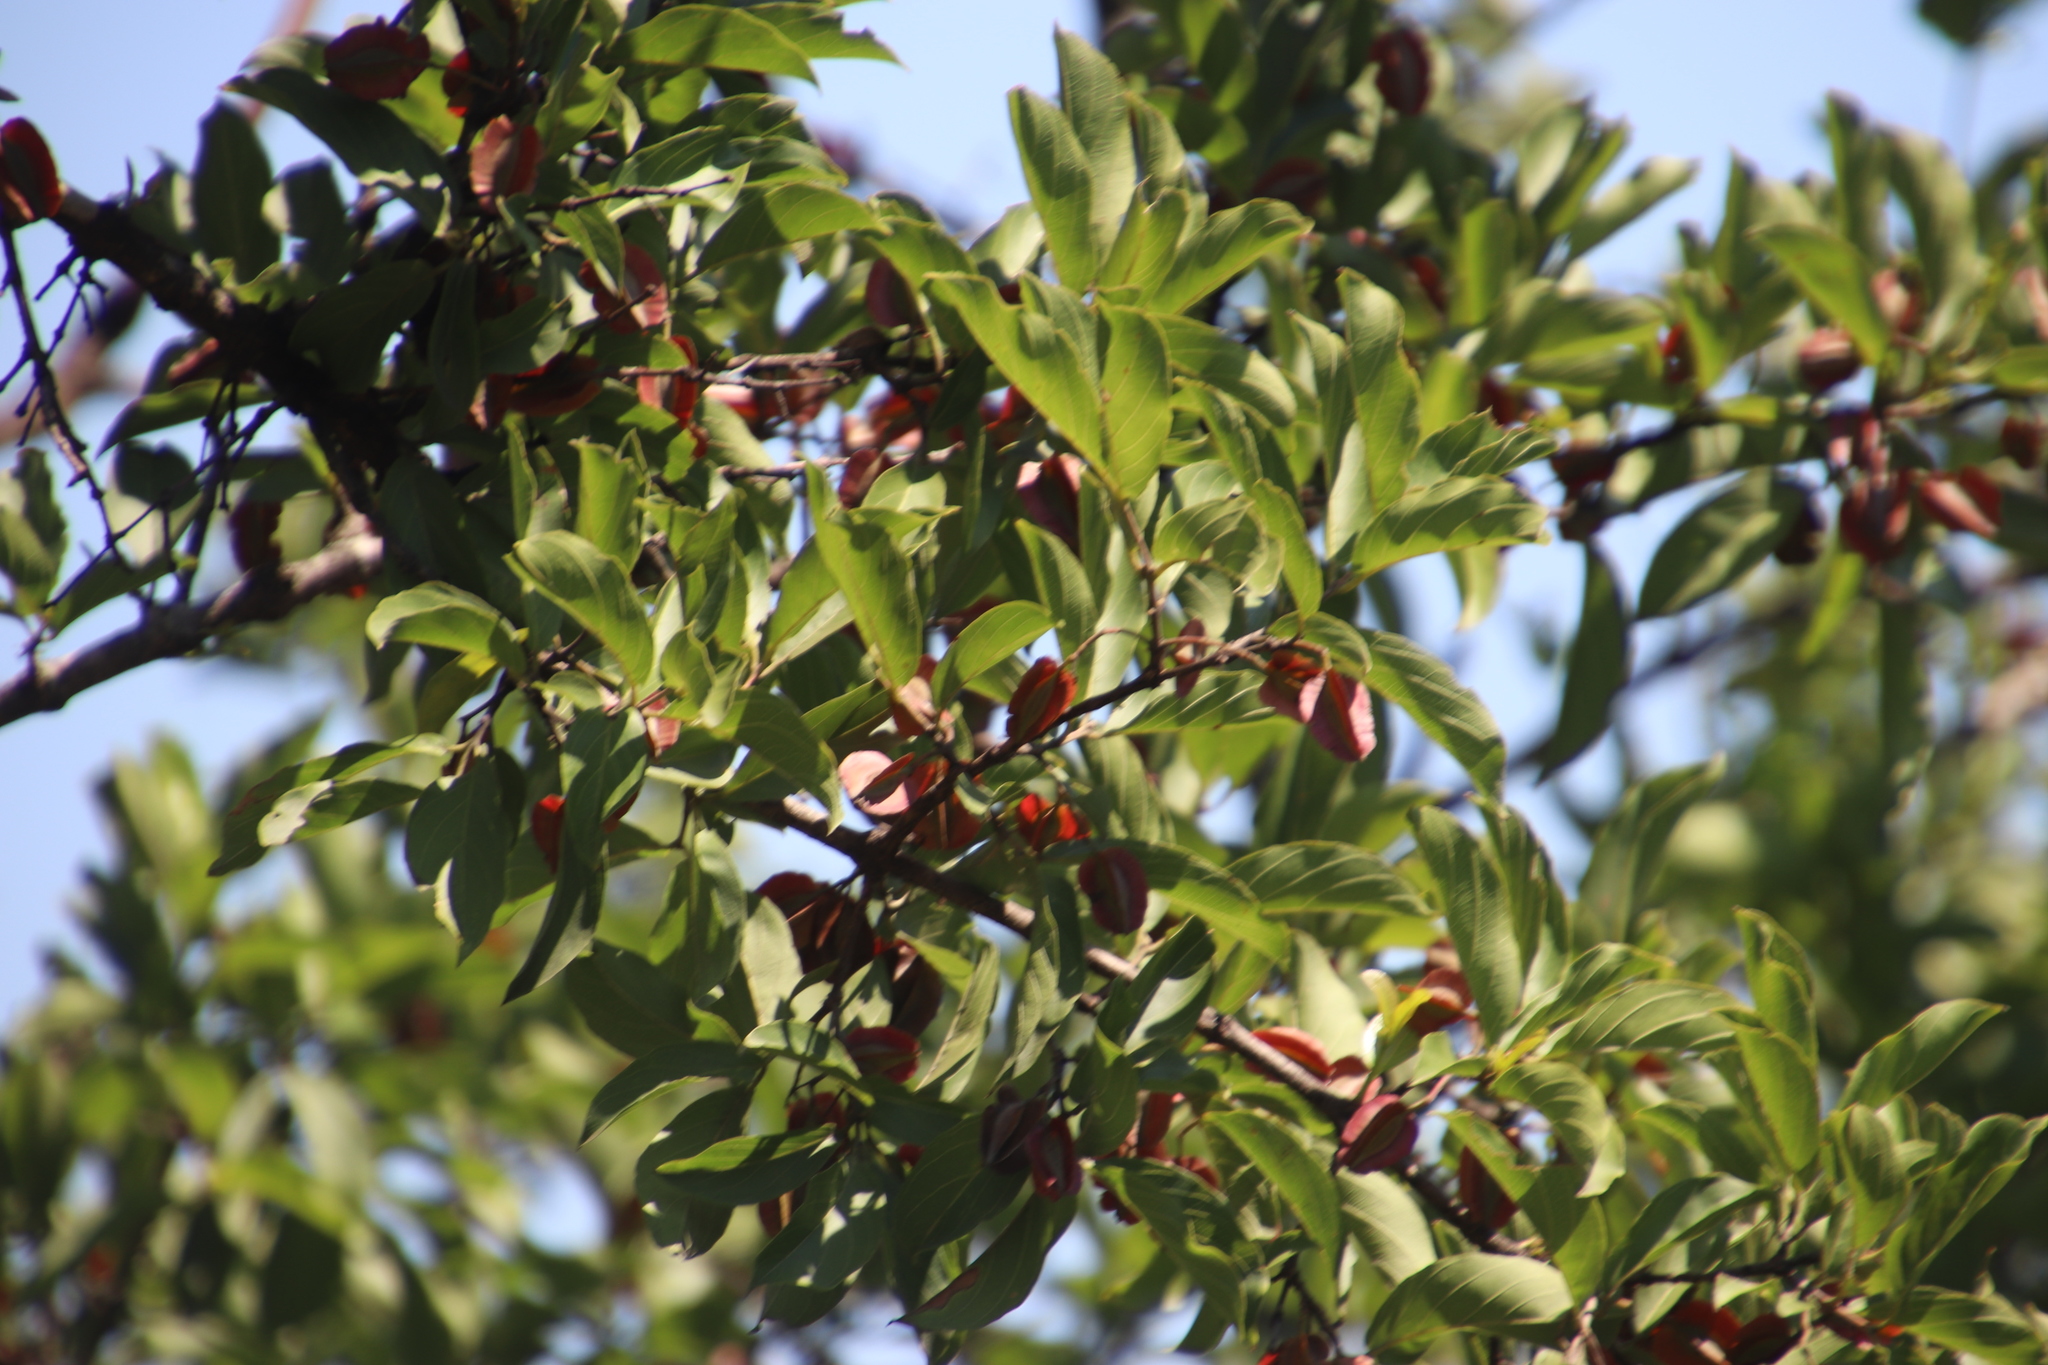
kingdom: Plantae
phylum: Tracheophyta
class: Magnoliopsida
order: Myrtales
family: Combretaceae
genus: Combretum
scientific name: Combretum apiculatum
